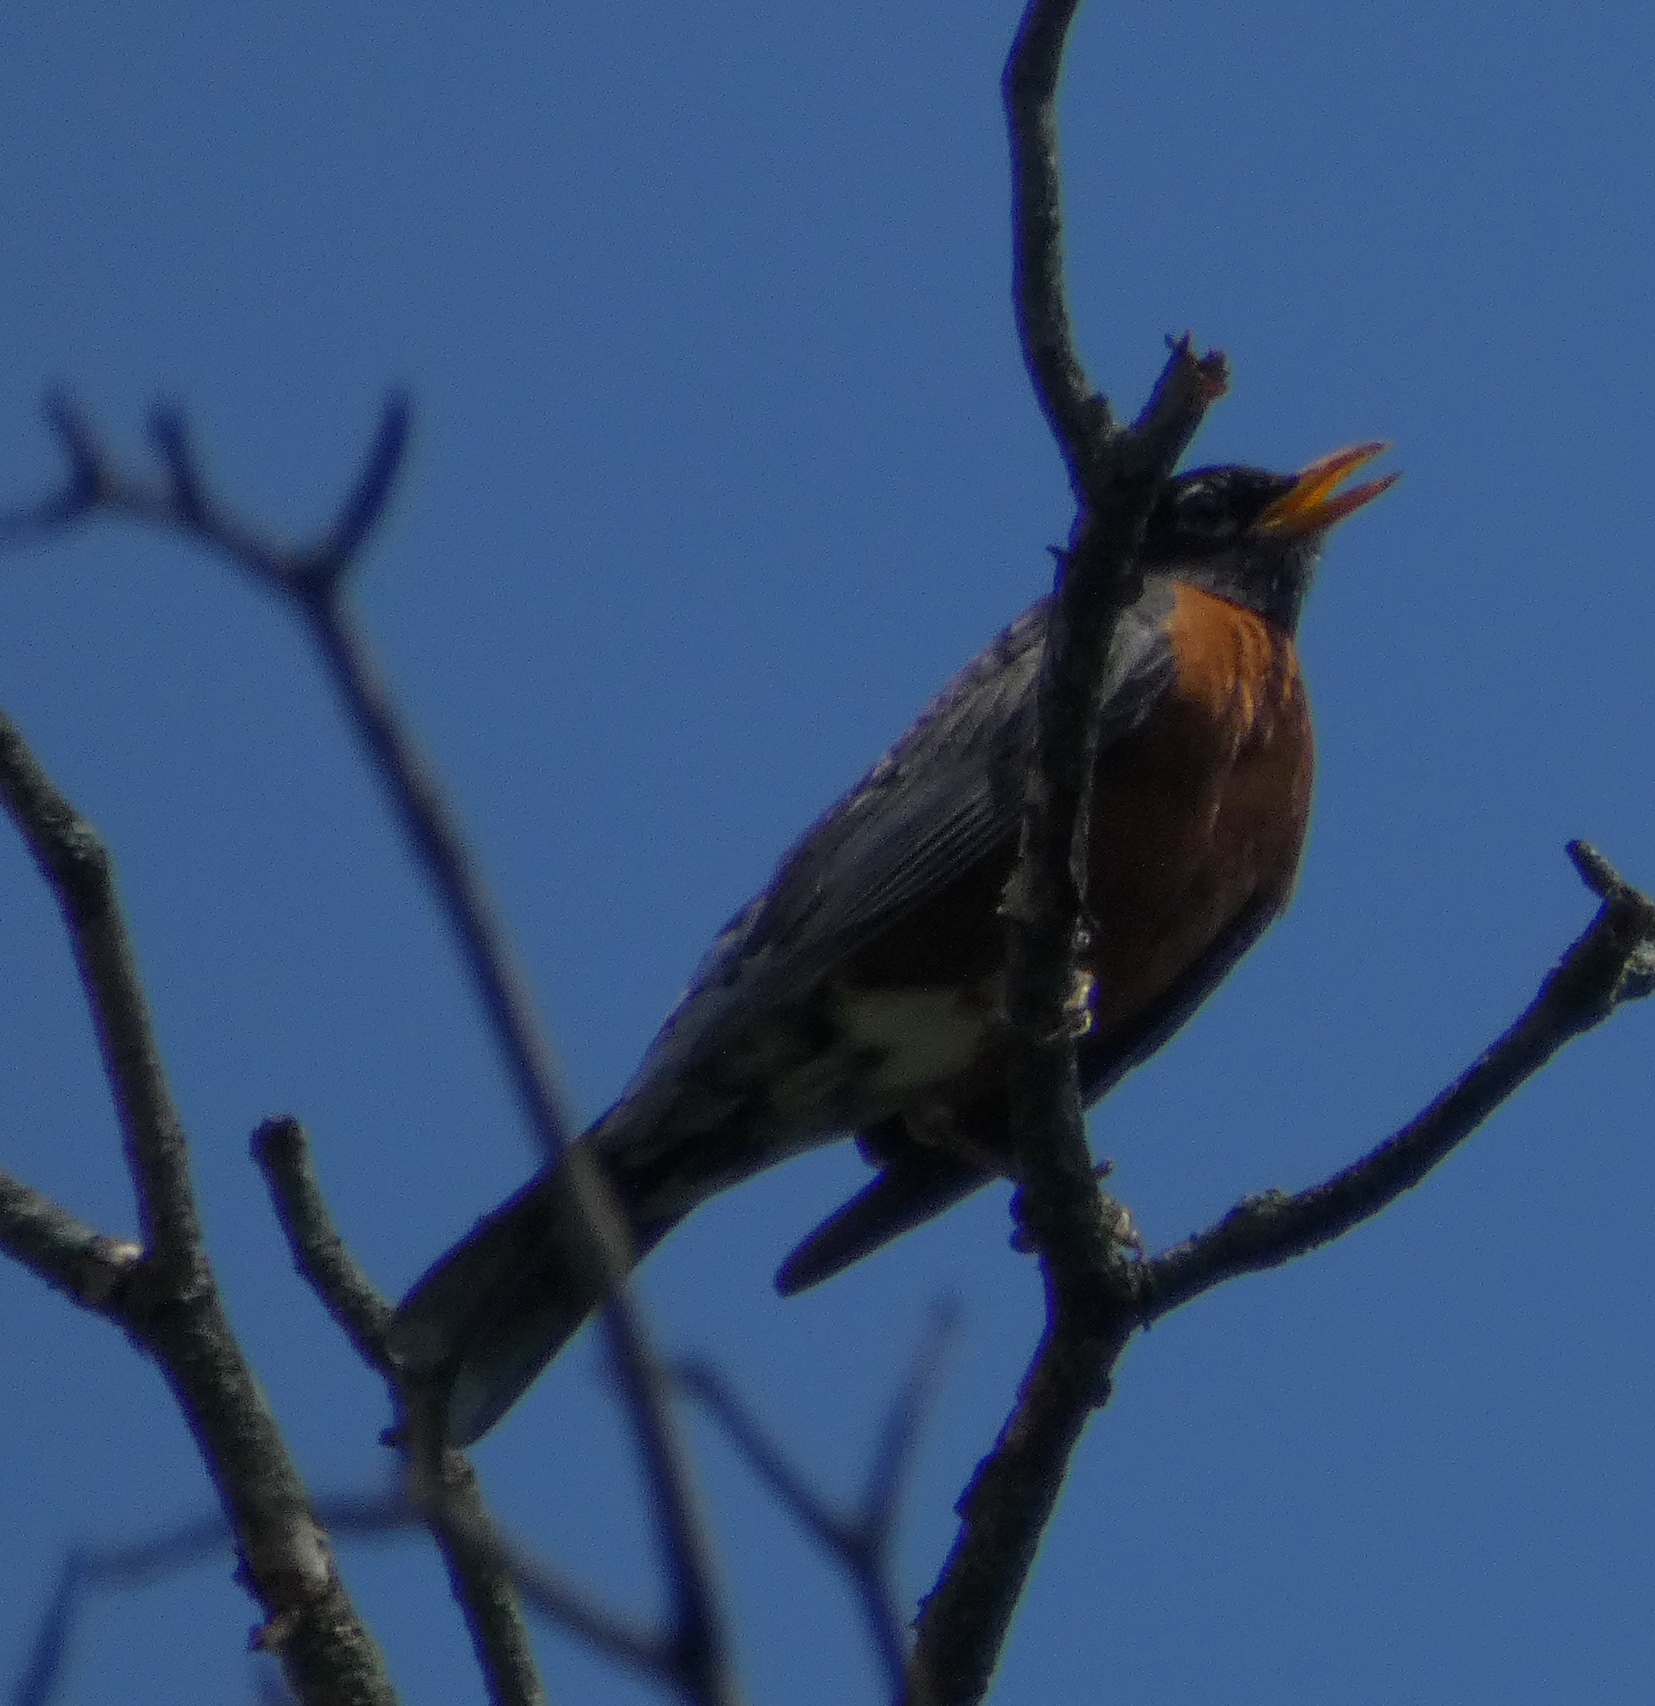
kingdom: Animalia
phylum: Chordata
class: Aves
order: Passeriformes
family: Turdidae
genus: Turdus
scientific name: Turdus migratorius
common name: American robin
